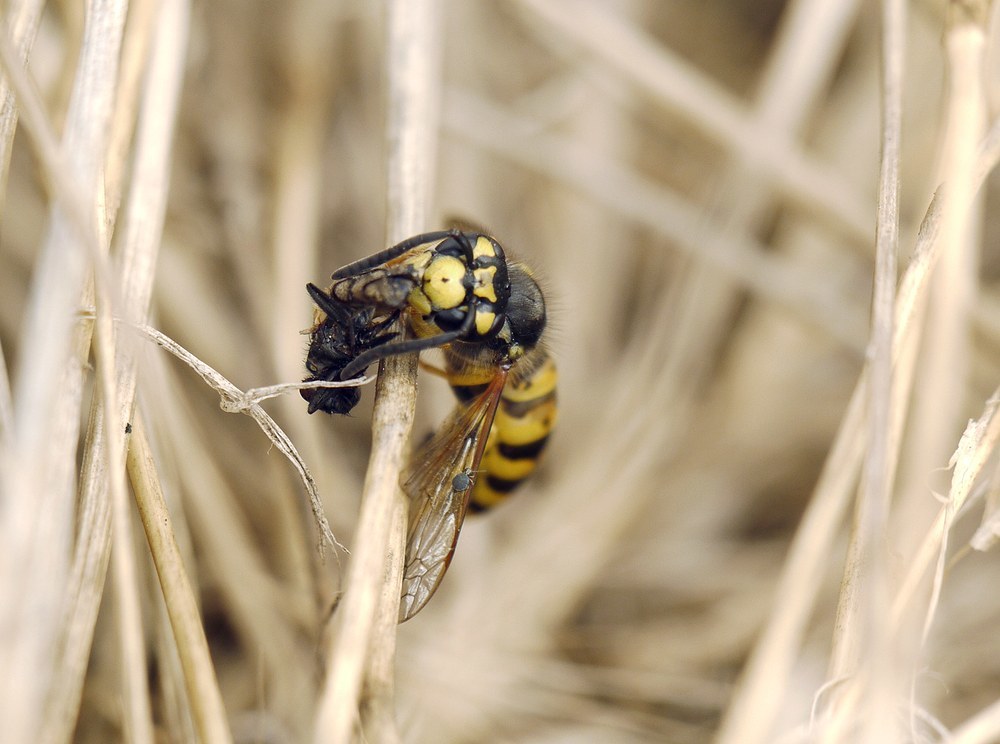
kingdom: Animalia
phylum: Arthropoda
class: Insecta
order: Hymenoptera
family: Vespidae
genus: Vespula
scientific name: Vespula germanica
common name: German wasp
